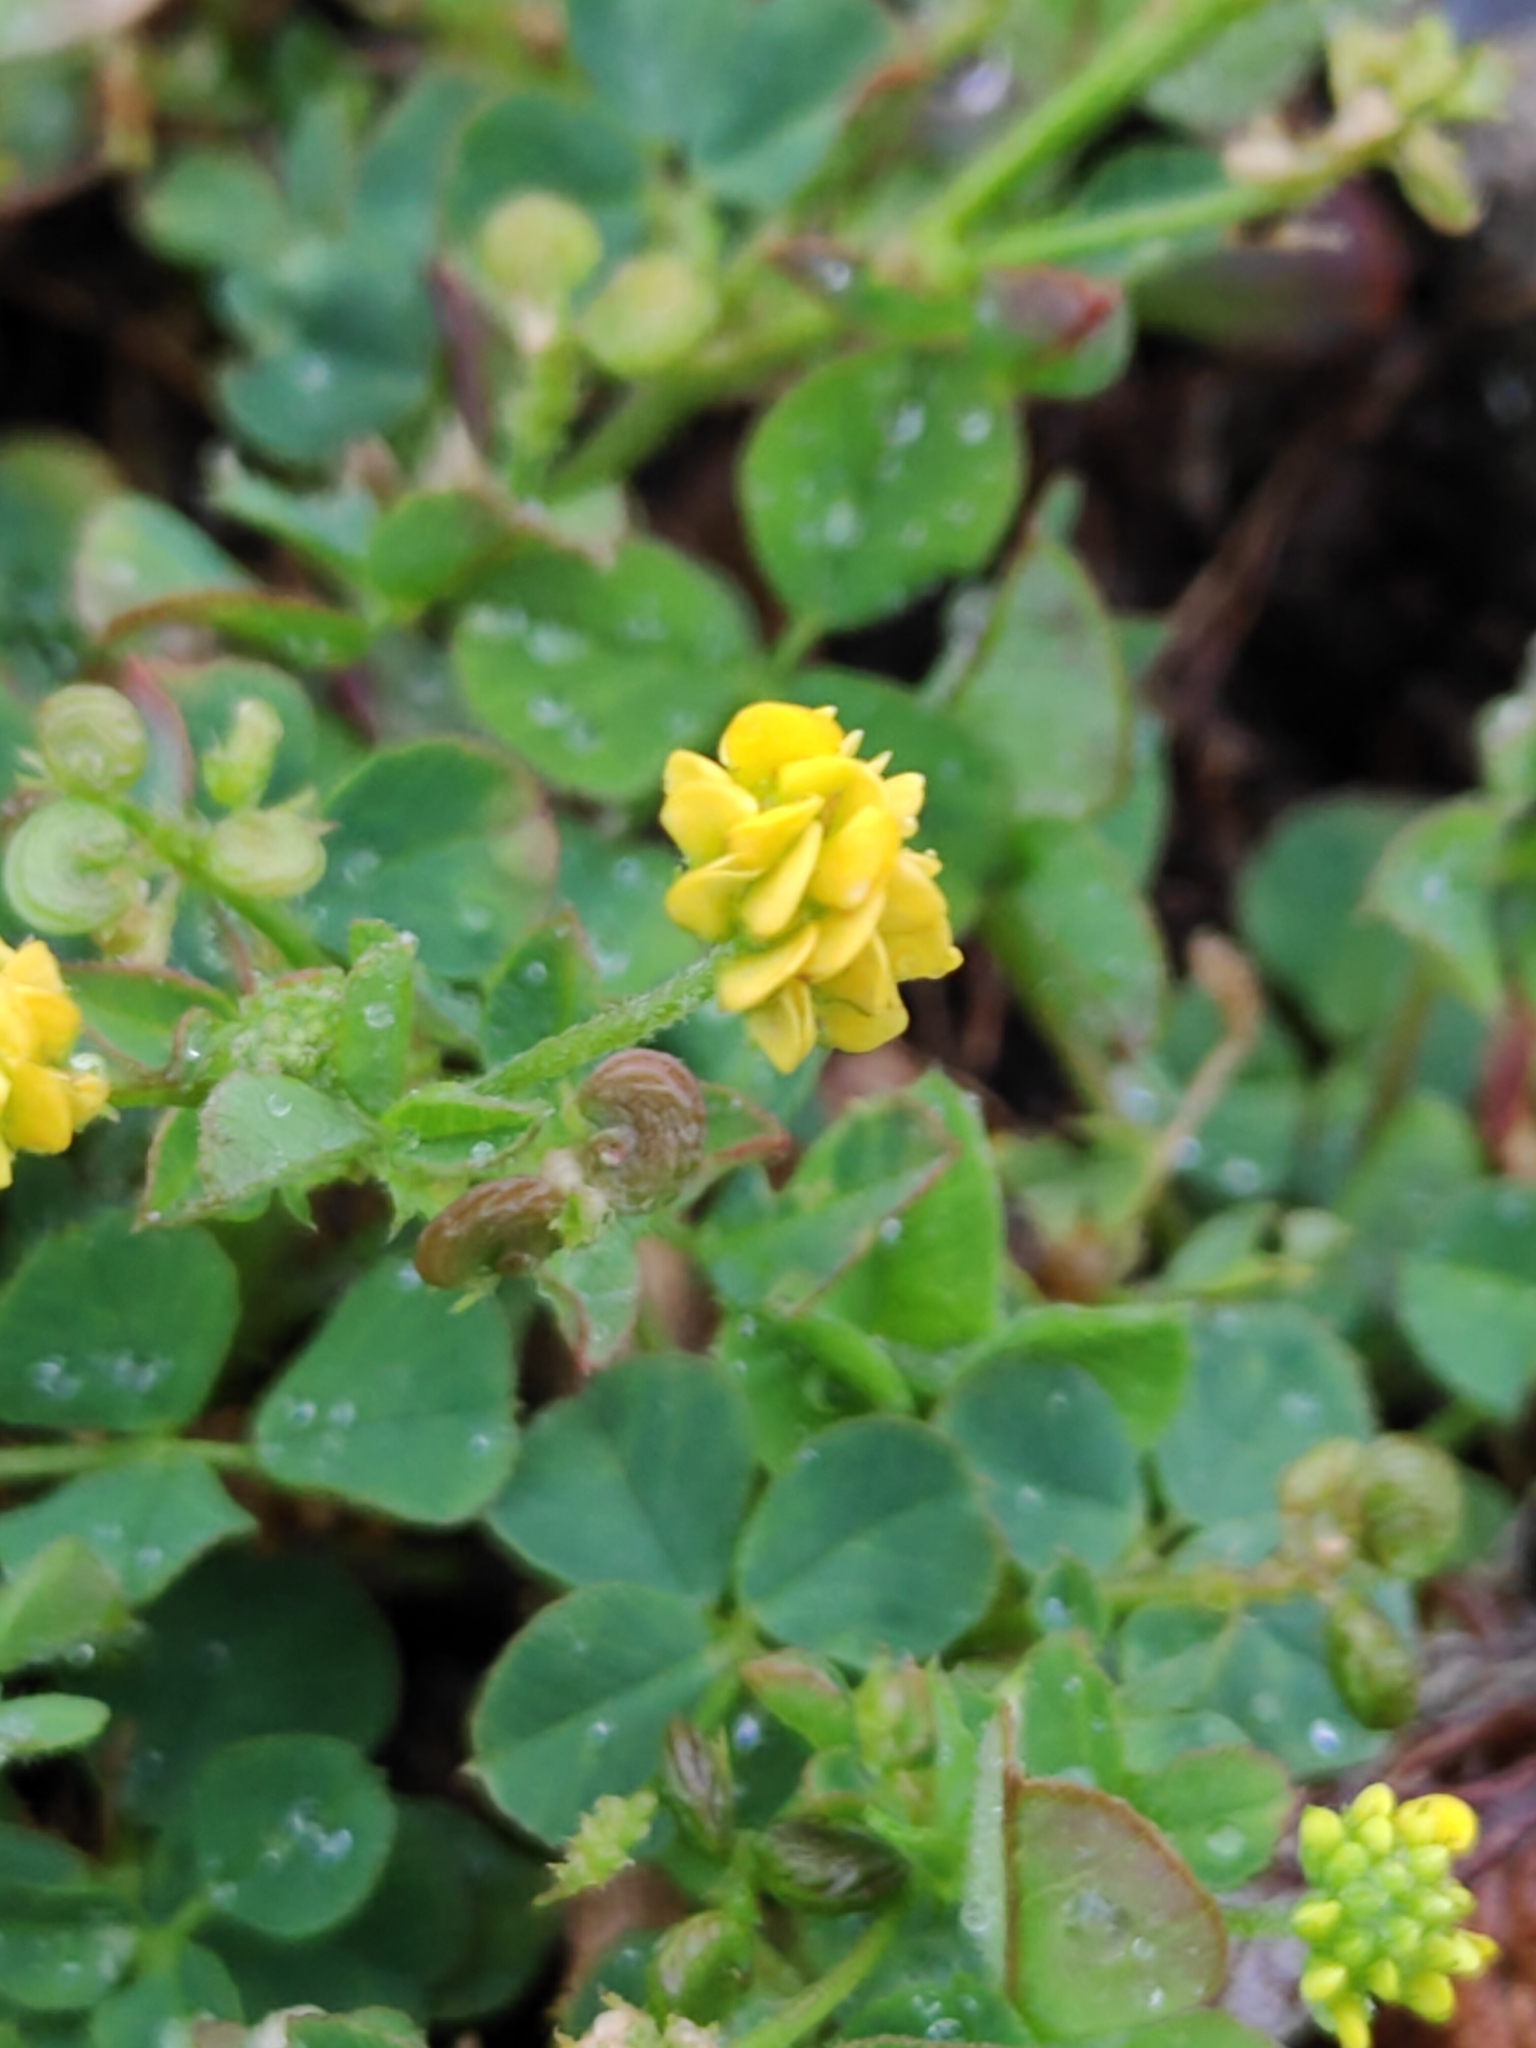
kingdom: Plantae
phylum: Tracheophyta
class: Magnoliopsida
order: Fabales
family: Fabaceae
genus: Medicago
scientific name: Medicago lupulina
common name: Black medick
